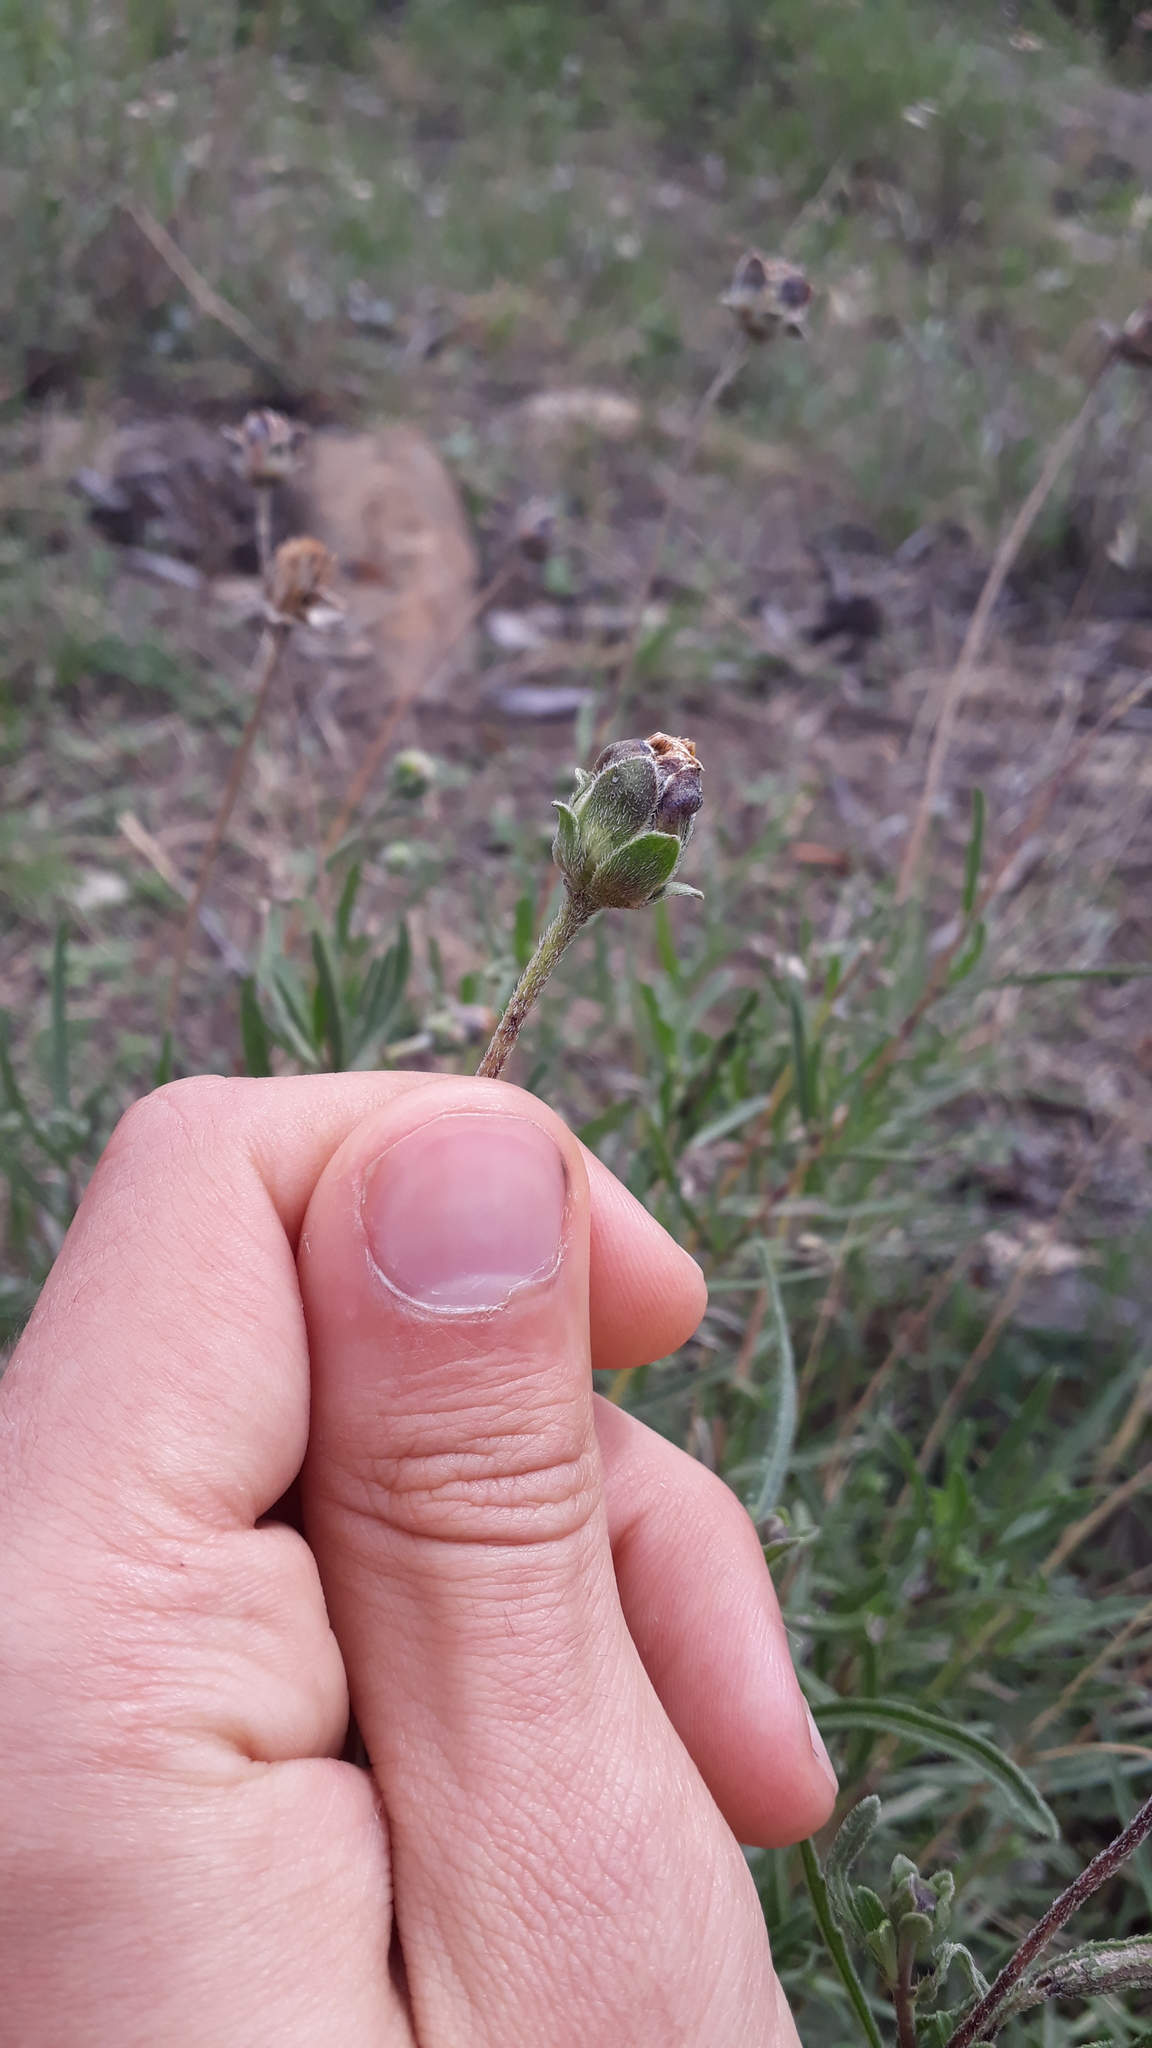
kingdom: Plantae
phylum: Tracheophyta
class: Magnoliopsida
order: Asterales
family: Asteraceae
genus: Zexmenia
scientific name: Zexmenia buphtalmiflora
